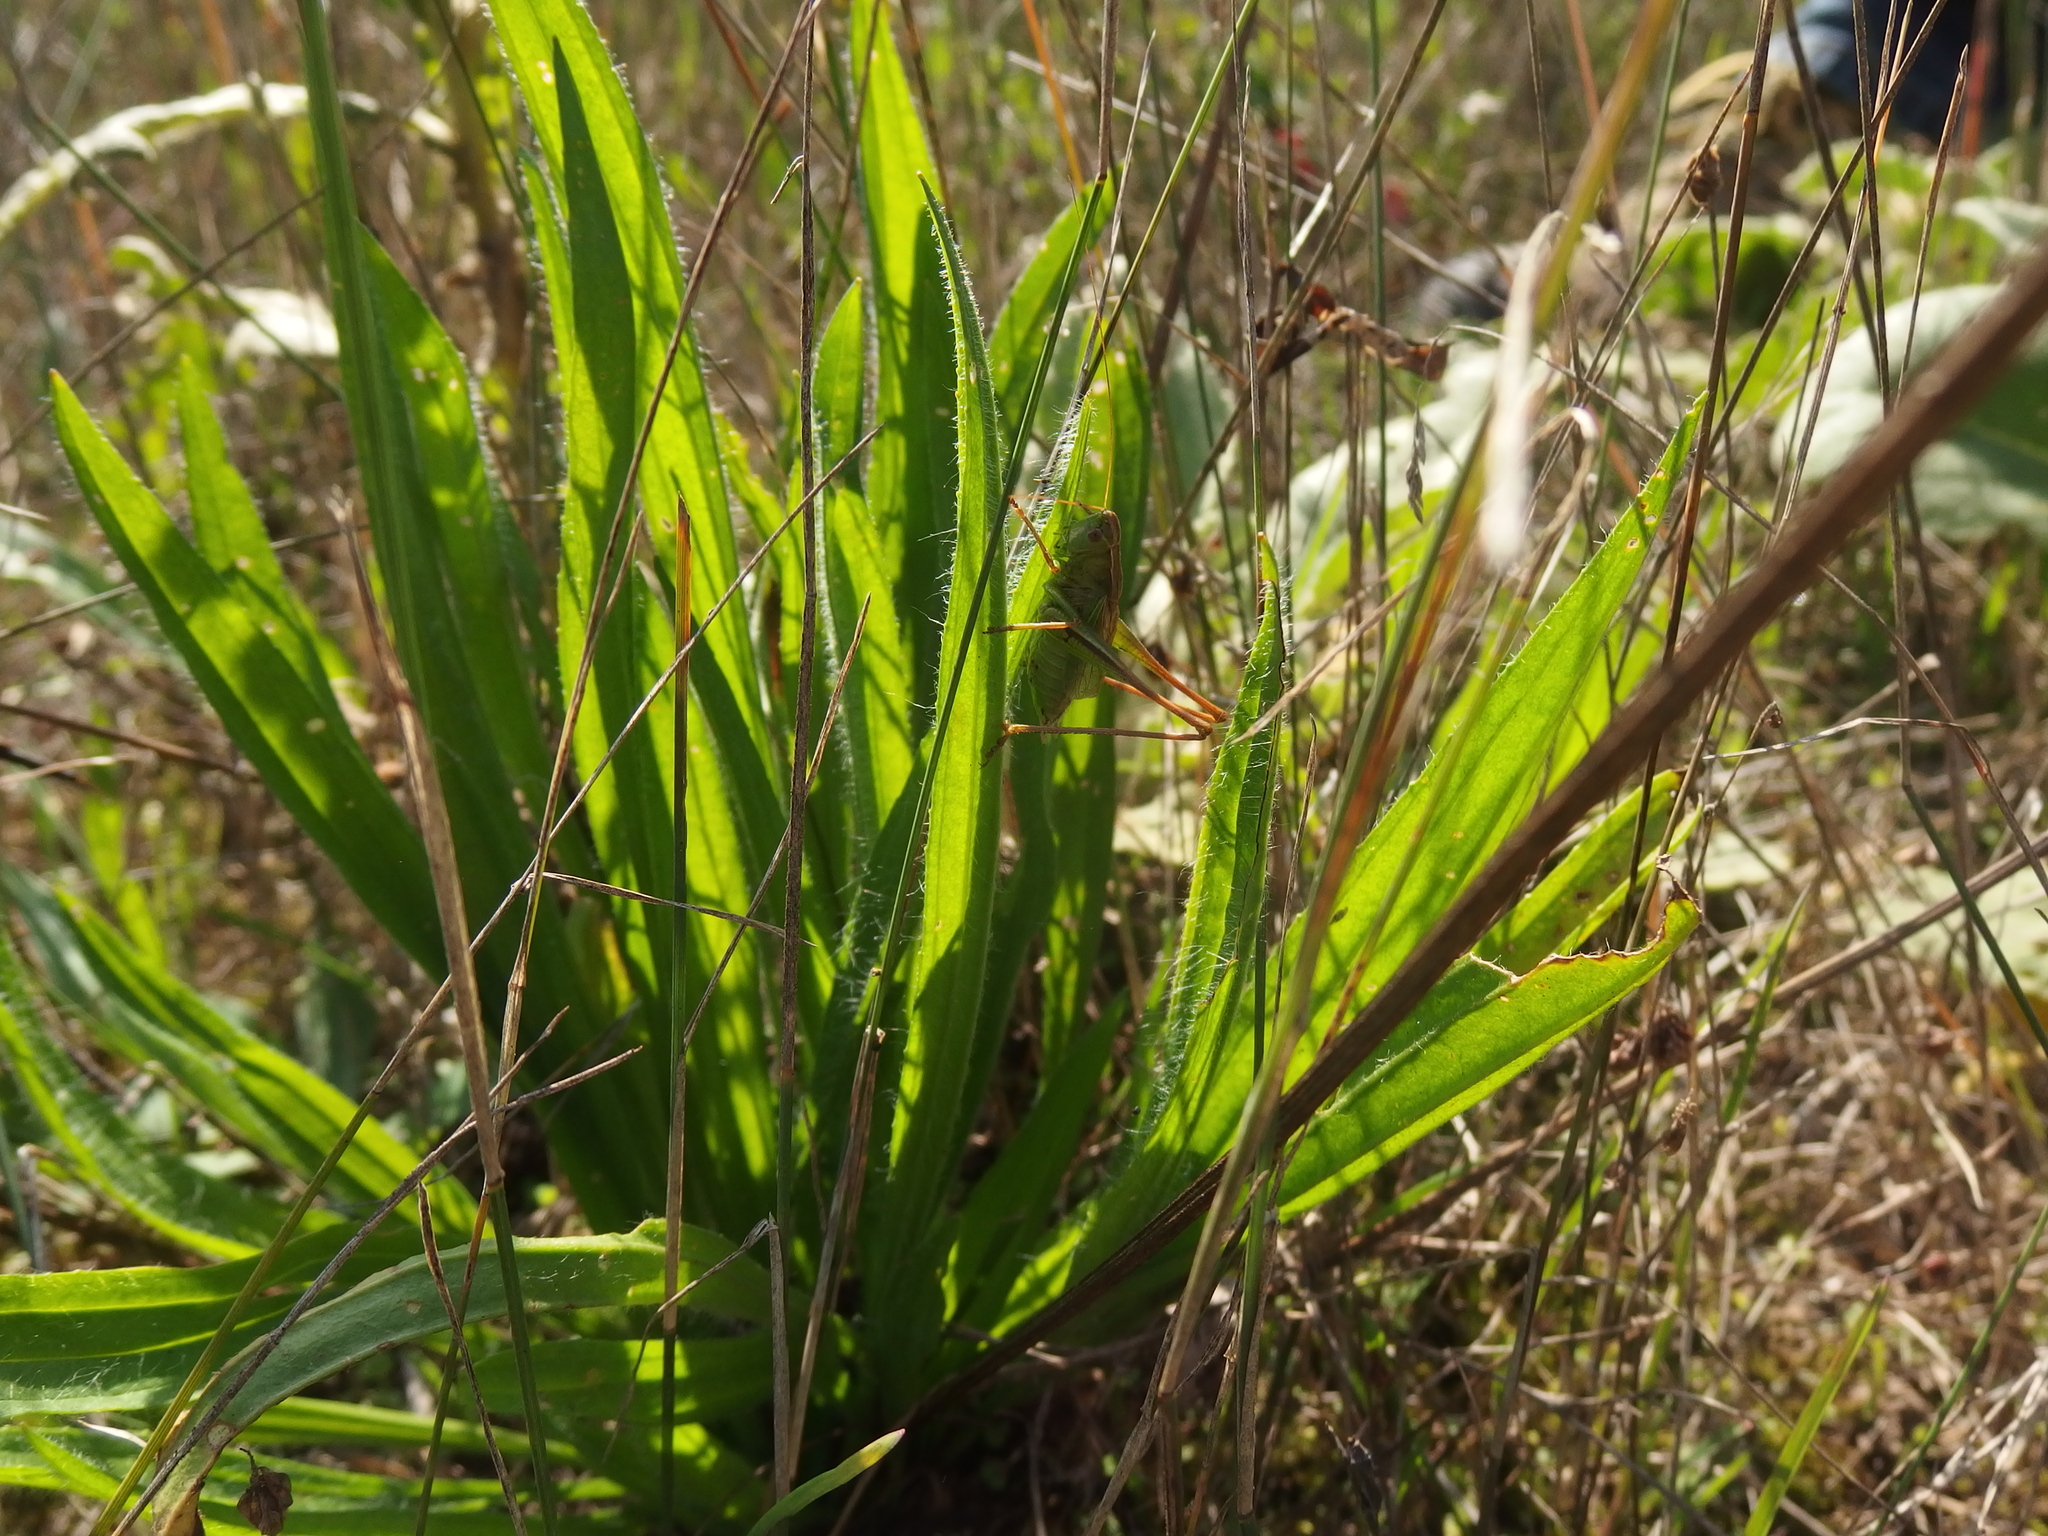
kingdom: Animalia
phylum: Arthropoda
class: Insecta
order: Orthoptera
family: Tettigoniidae
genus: Bicolorana
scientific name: Bicolorana bicolor
